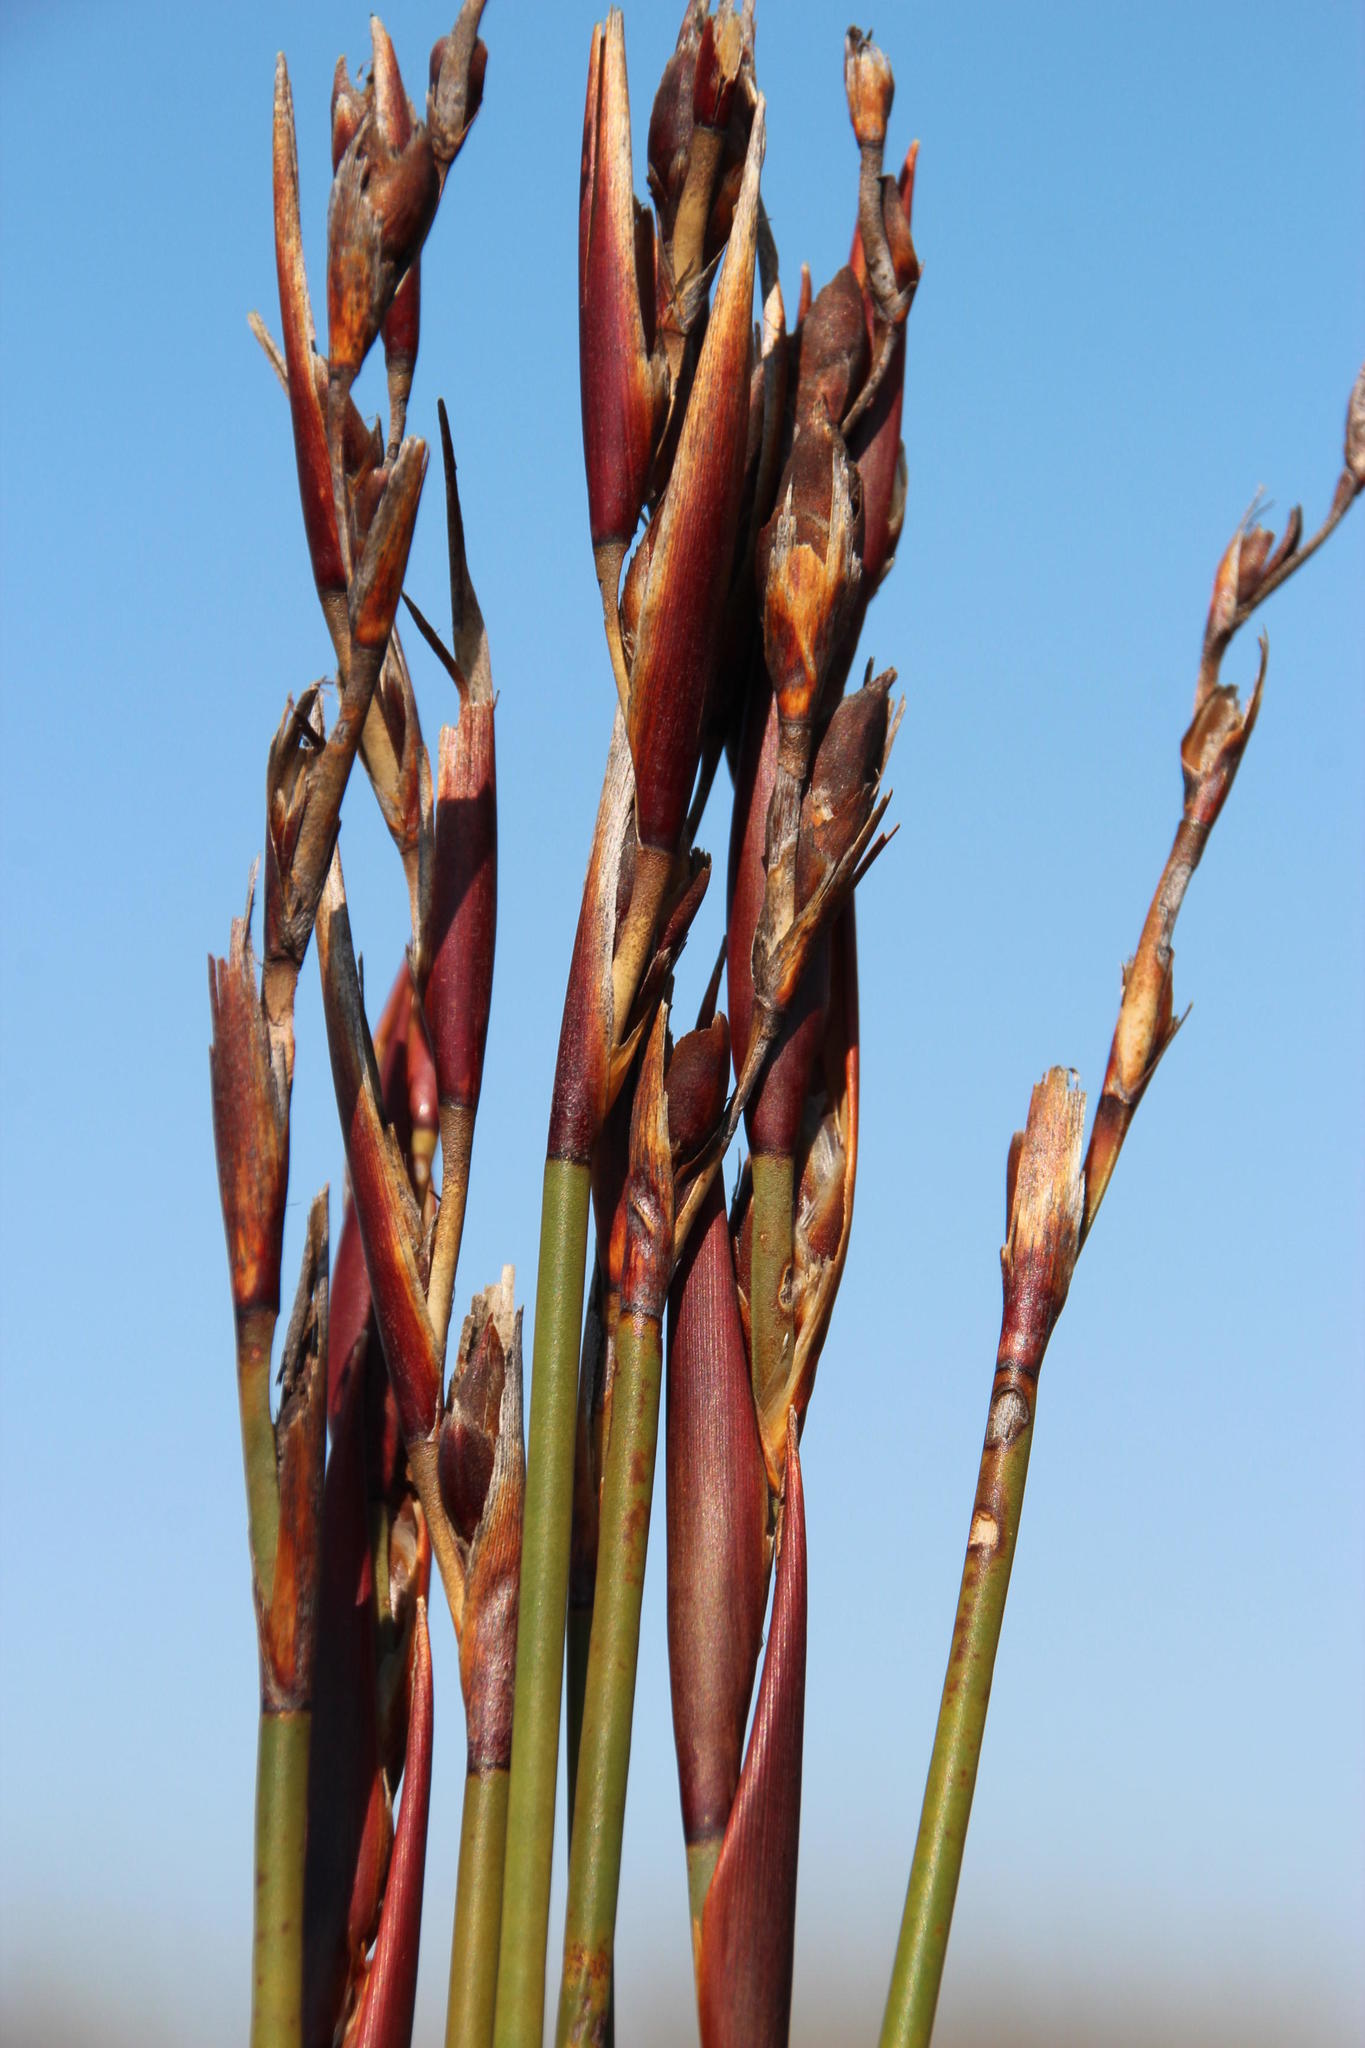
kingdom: Plantae
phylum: Tracheophyta
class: Liliopsida
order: Poales
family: Restionaceae
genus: Cannomois
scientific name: Cannomois scirpoides
